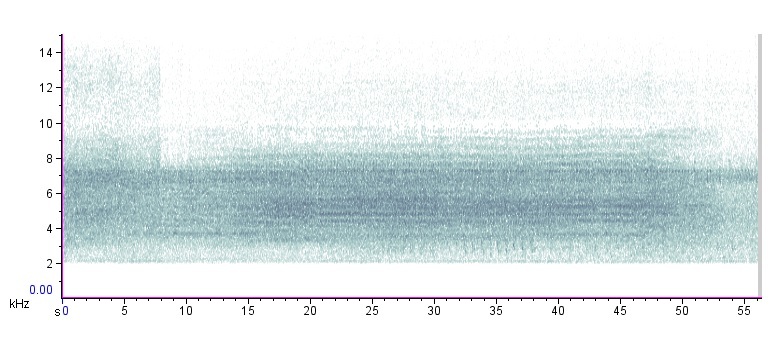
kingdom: Animalia
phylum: Arthropoda
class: Insecta
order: Hemiptera
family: Cicadidae
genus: Neotibicen
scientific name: Neotibicen lyricen
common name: Lyric cicada
